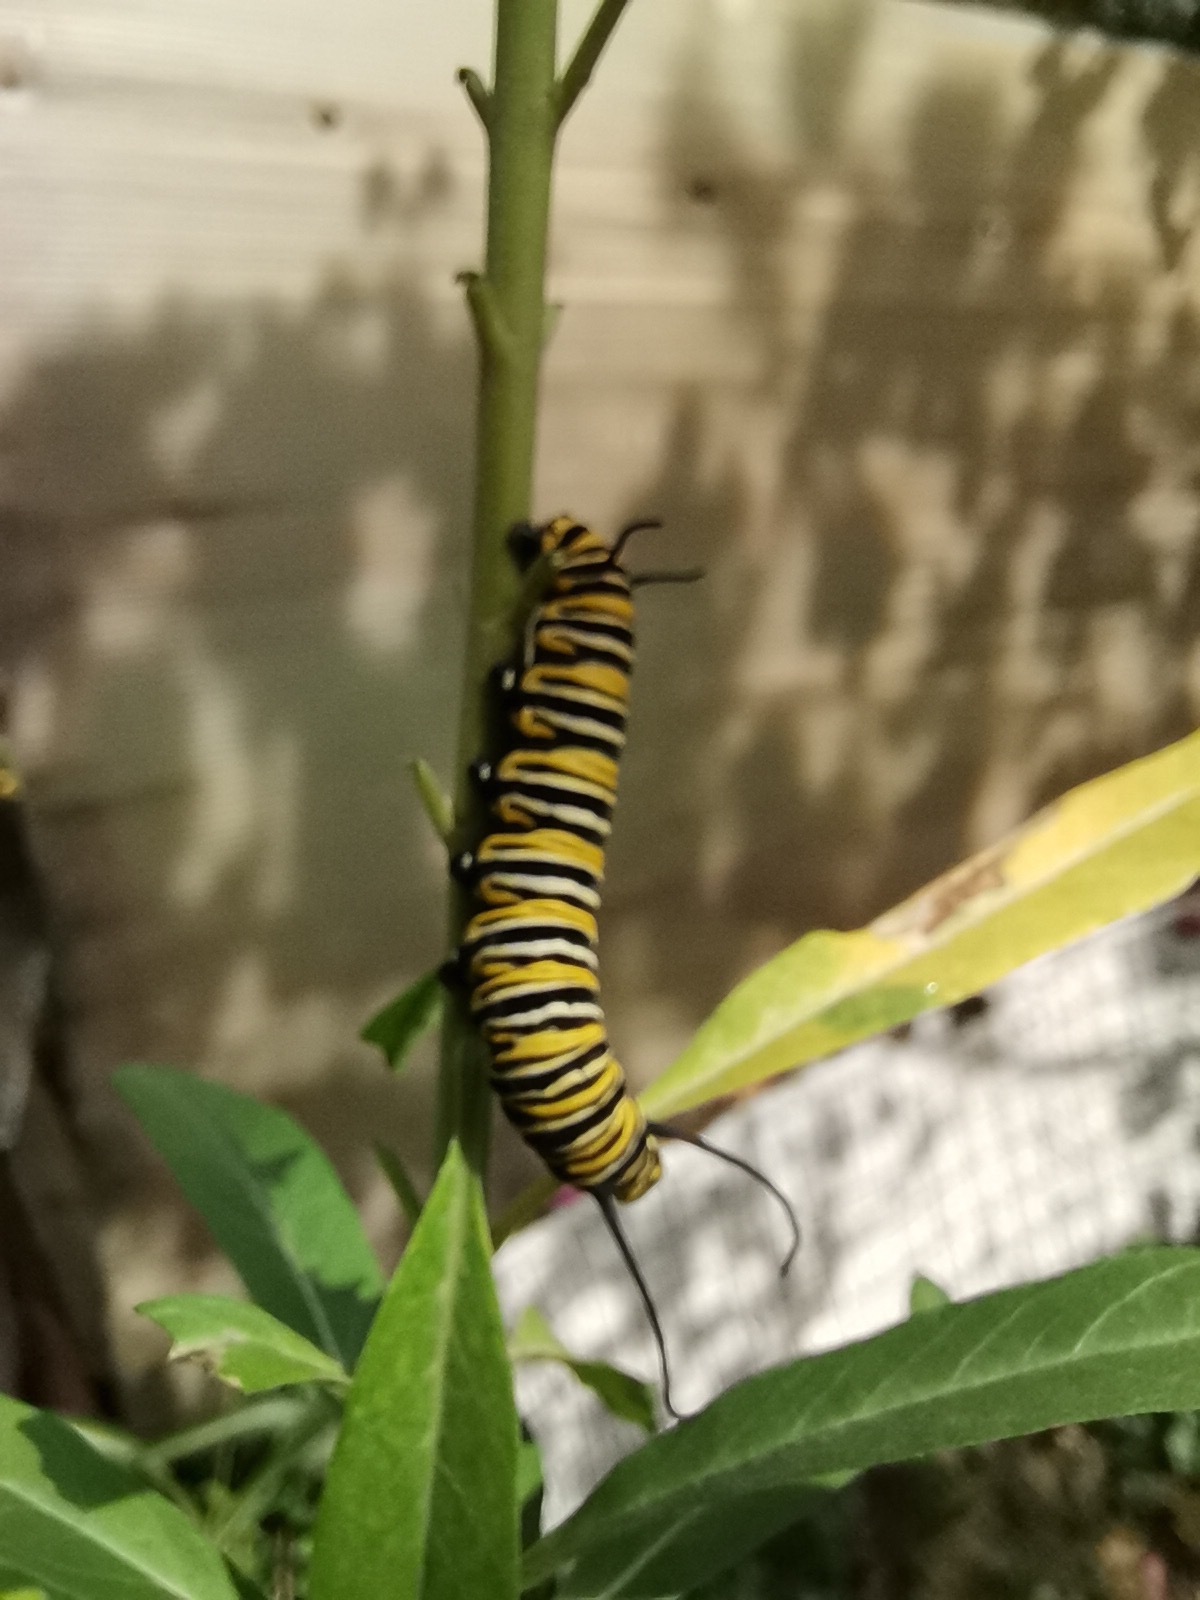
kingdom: Animalia
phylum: Arthropoda
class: Insecta
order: Lepidoptera
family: Nymphalidae
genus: Danaus
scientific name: Danaus plexippus
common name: Monarch
